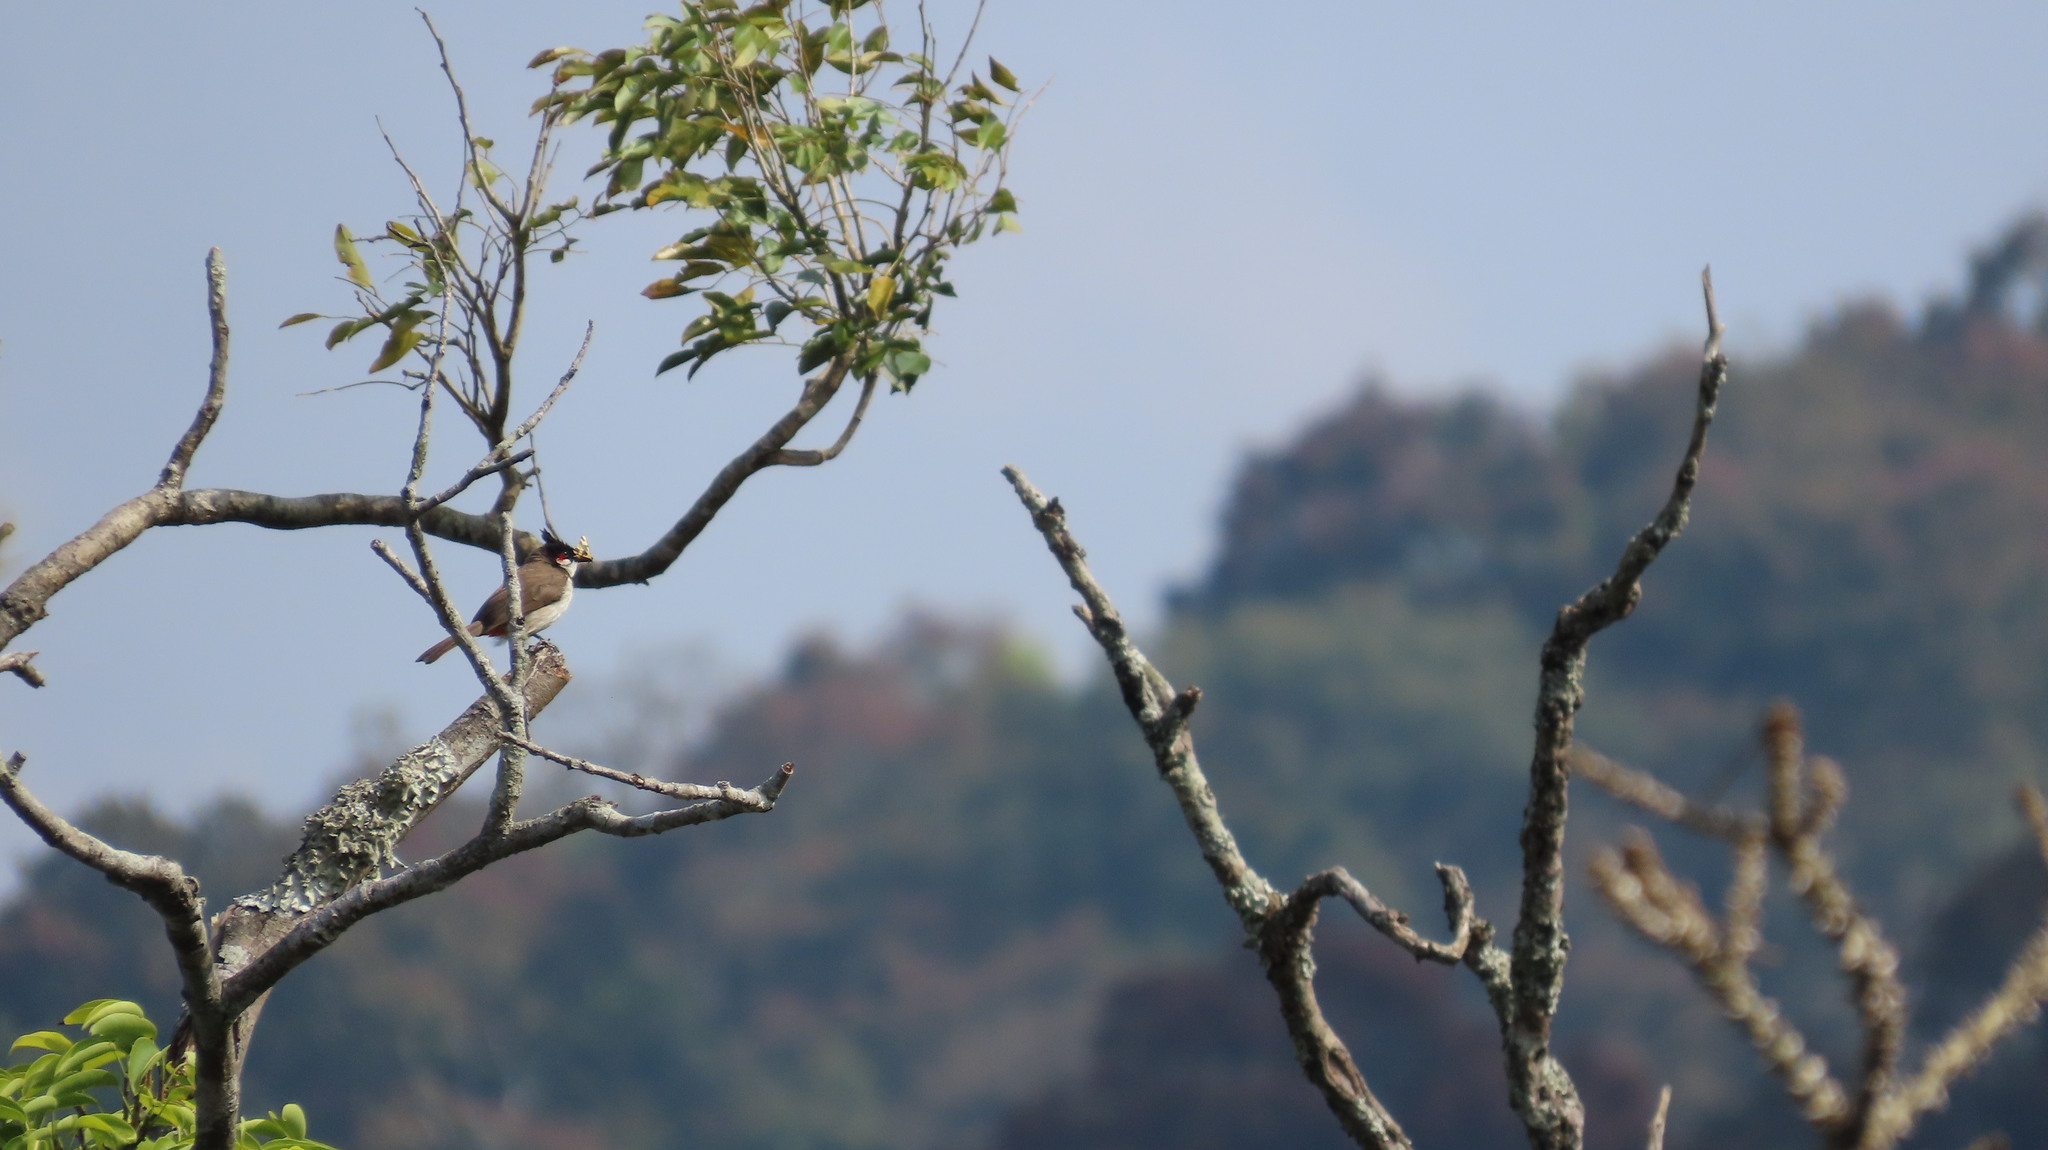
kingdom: Animalia
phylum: Chordata
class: Aves
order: Passeriformes
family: Pycnonotidae
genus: Pycnonotus
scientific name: Pycnonotus jocosus
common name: Red-whiskered bulbul
